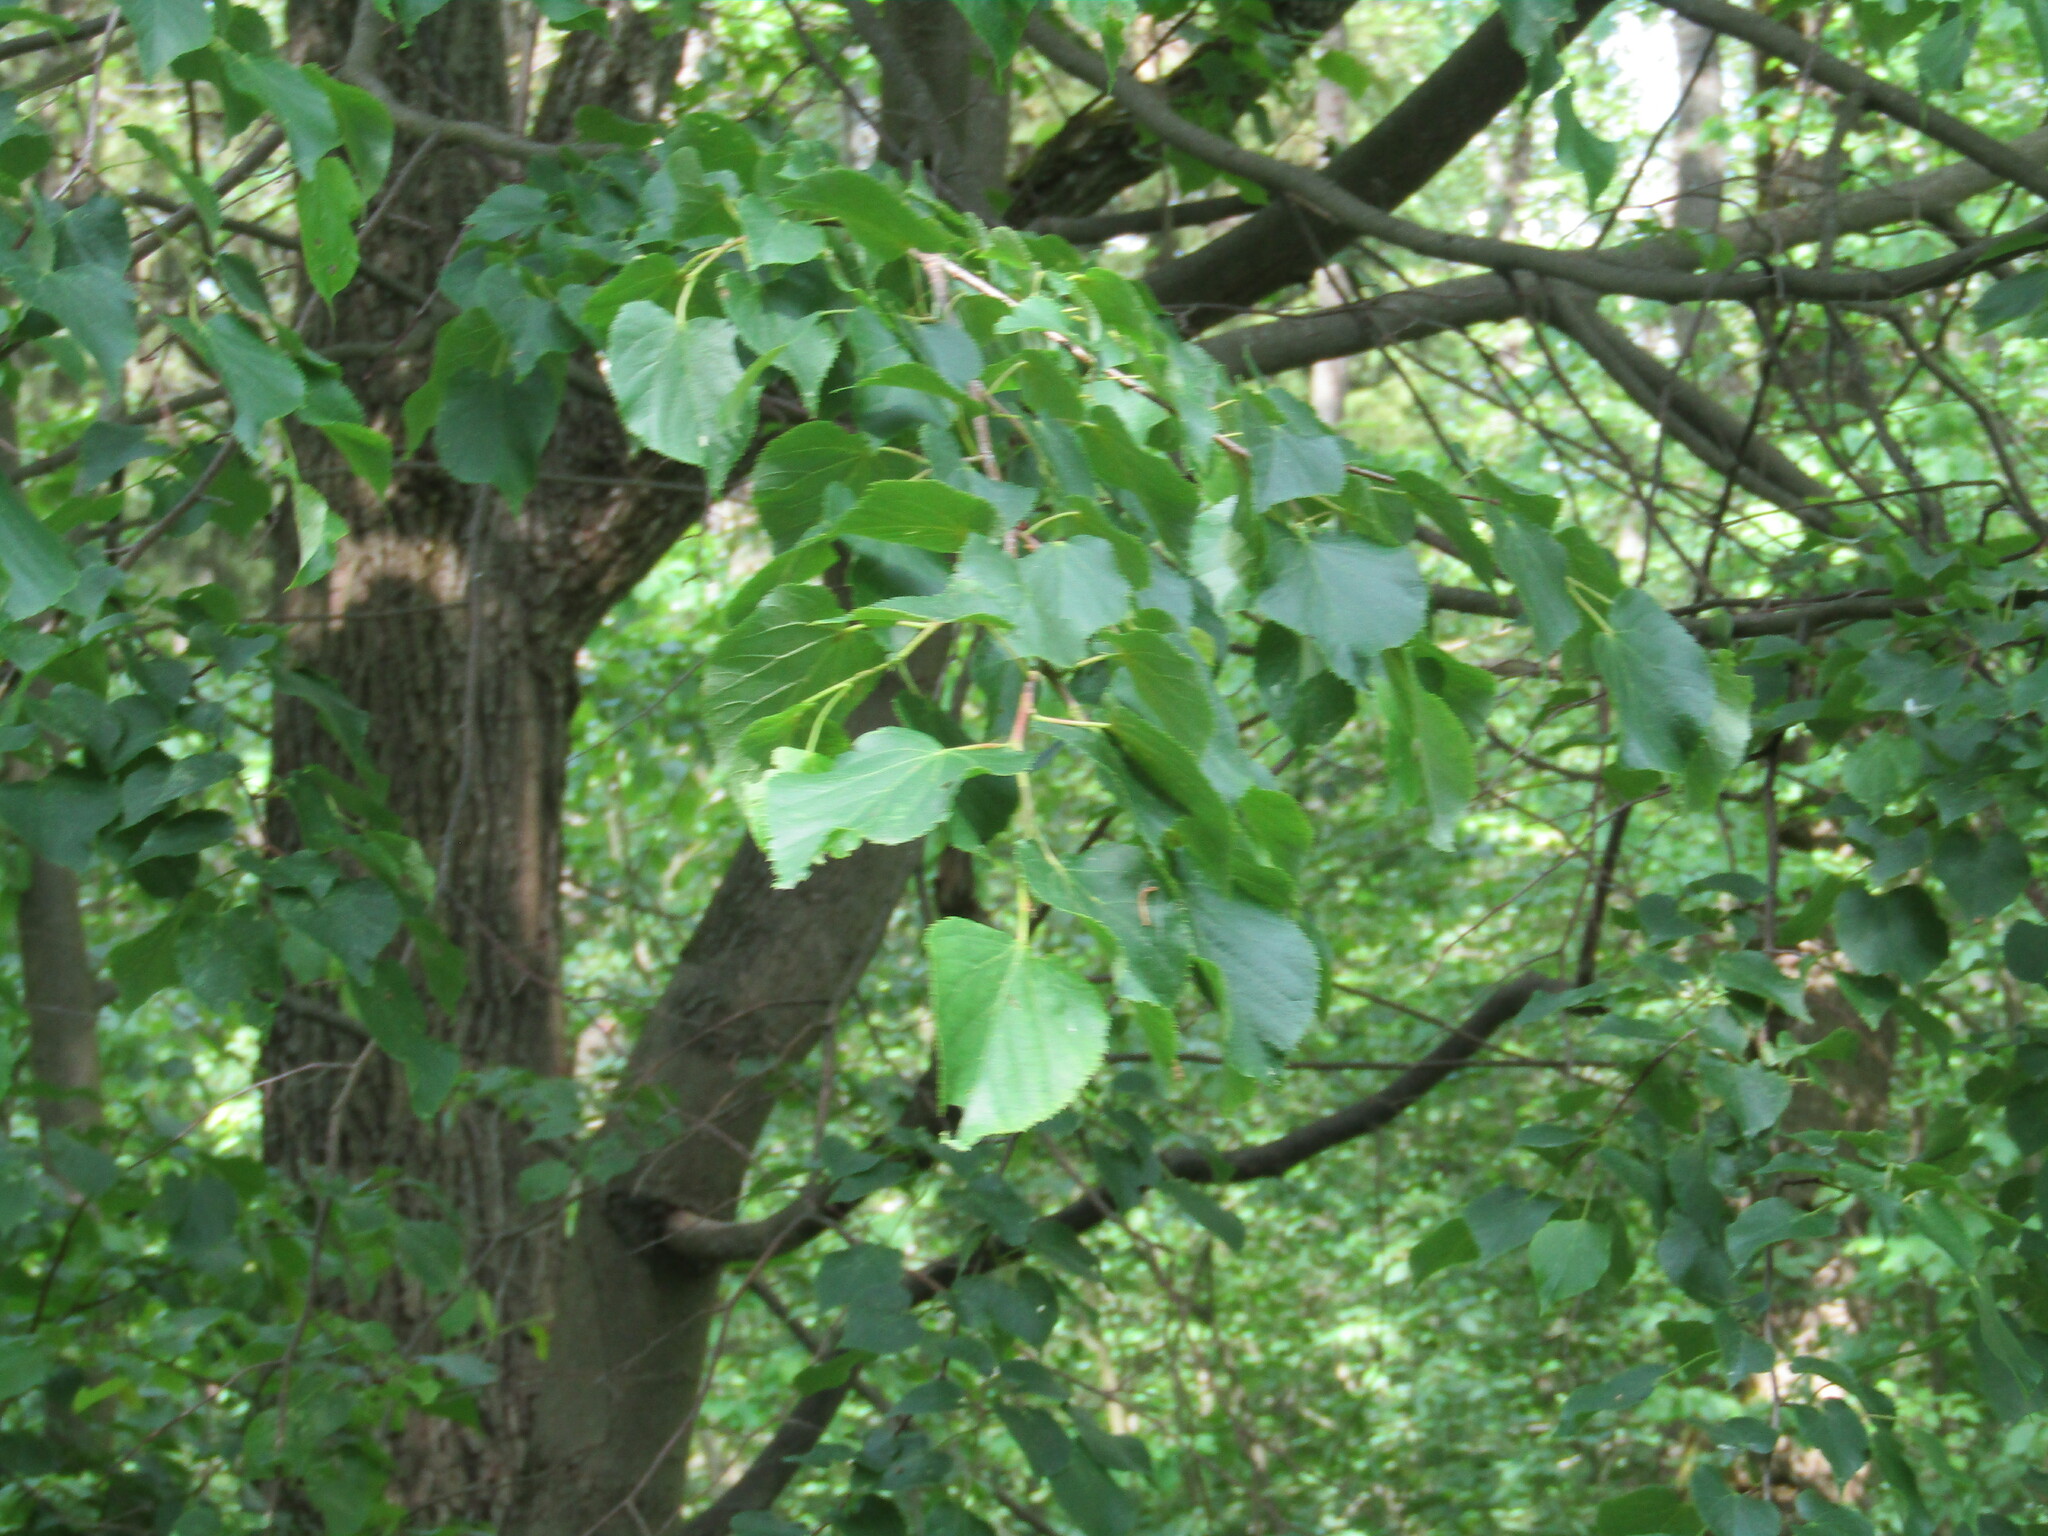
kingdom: Plantae
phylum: Tracheophyta
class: Magnoliopsida
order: Malvales
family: Malvaceae
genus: Tilia
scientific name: Tilia cordata
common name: Small-leaved lime
